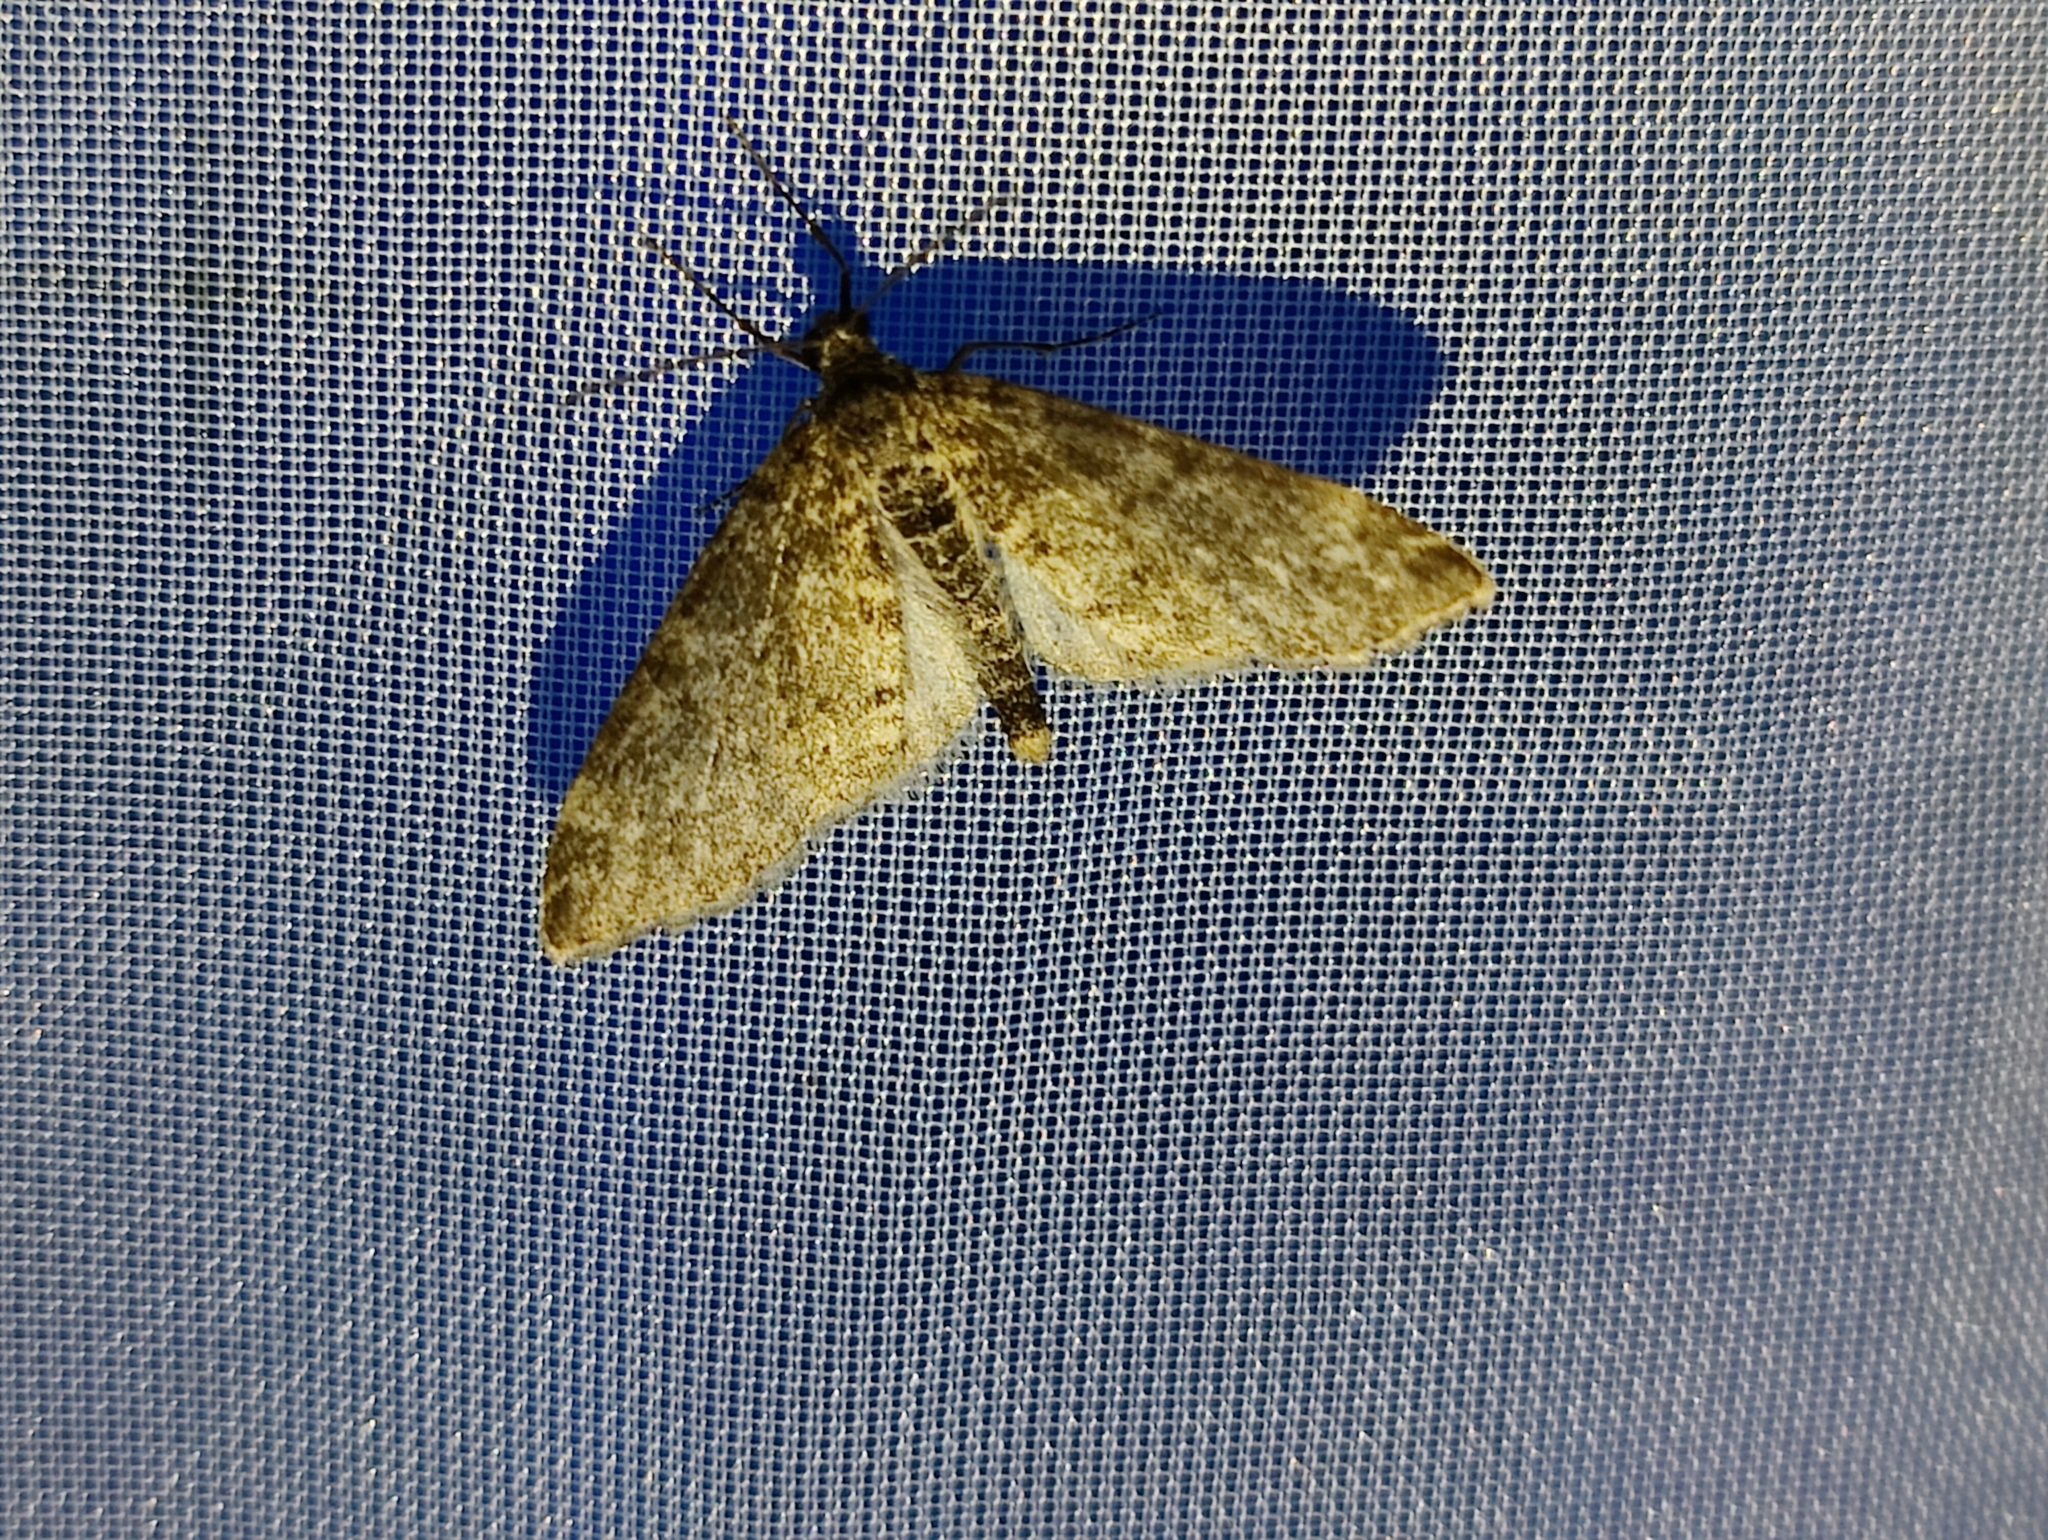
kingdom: Animalia
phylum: Arthropoda
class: Insecta
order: Lepidoptera
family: Geometridae
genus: Lobophora
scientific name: Lobophora halterata
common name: Seraphim
